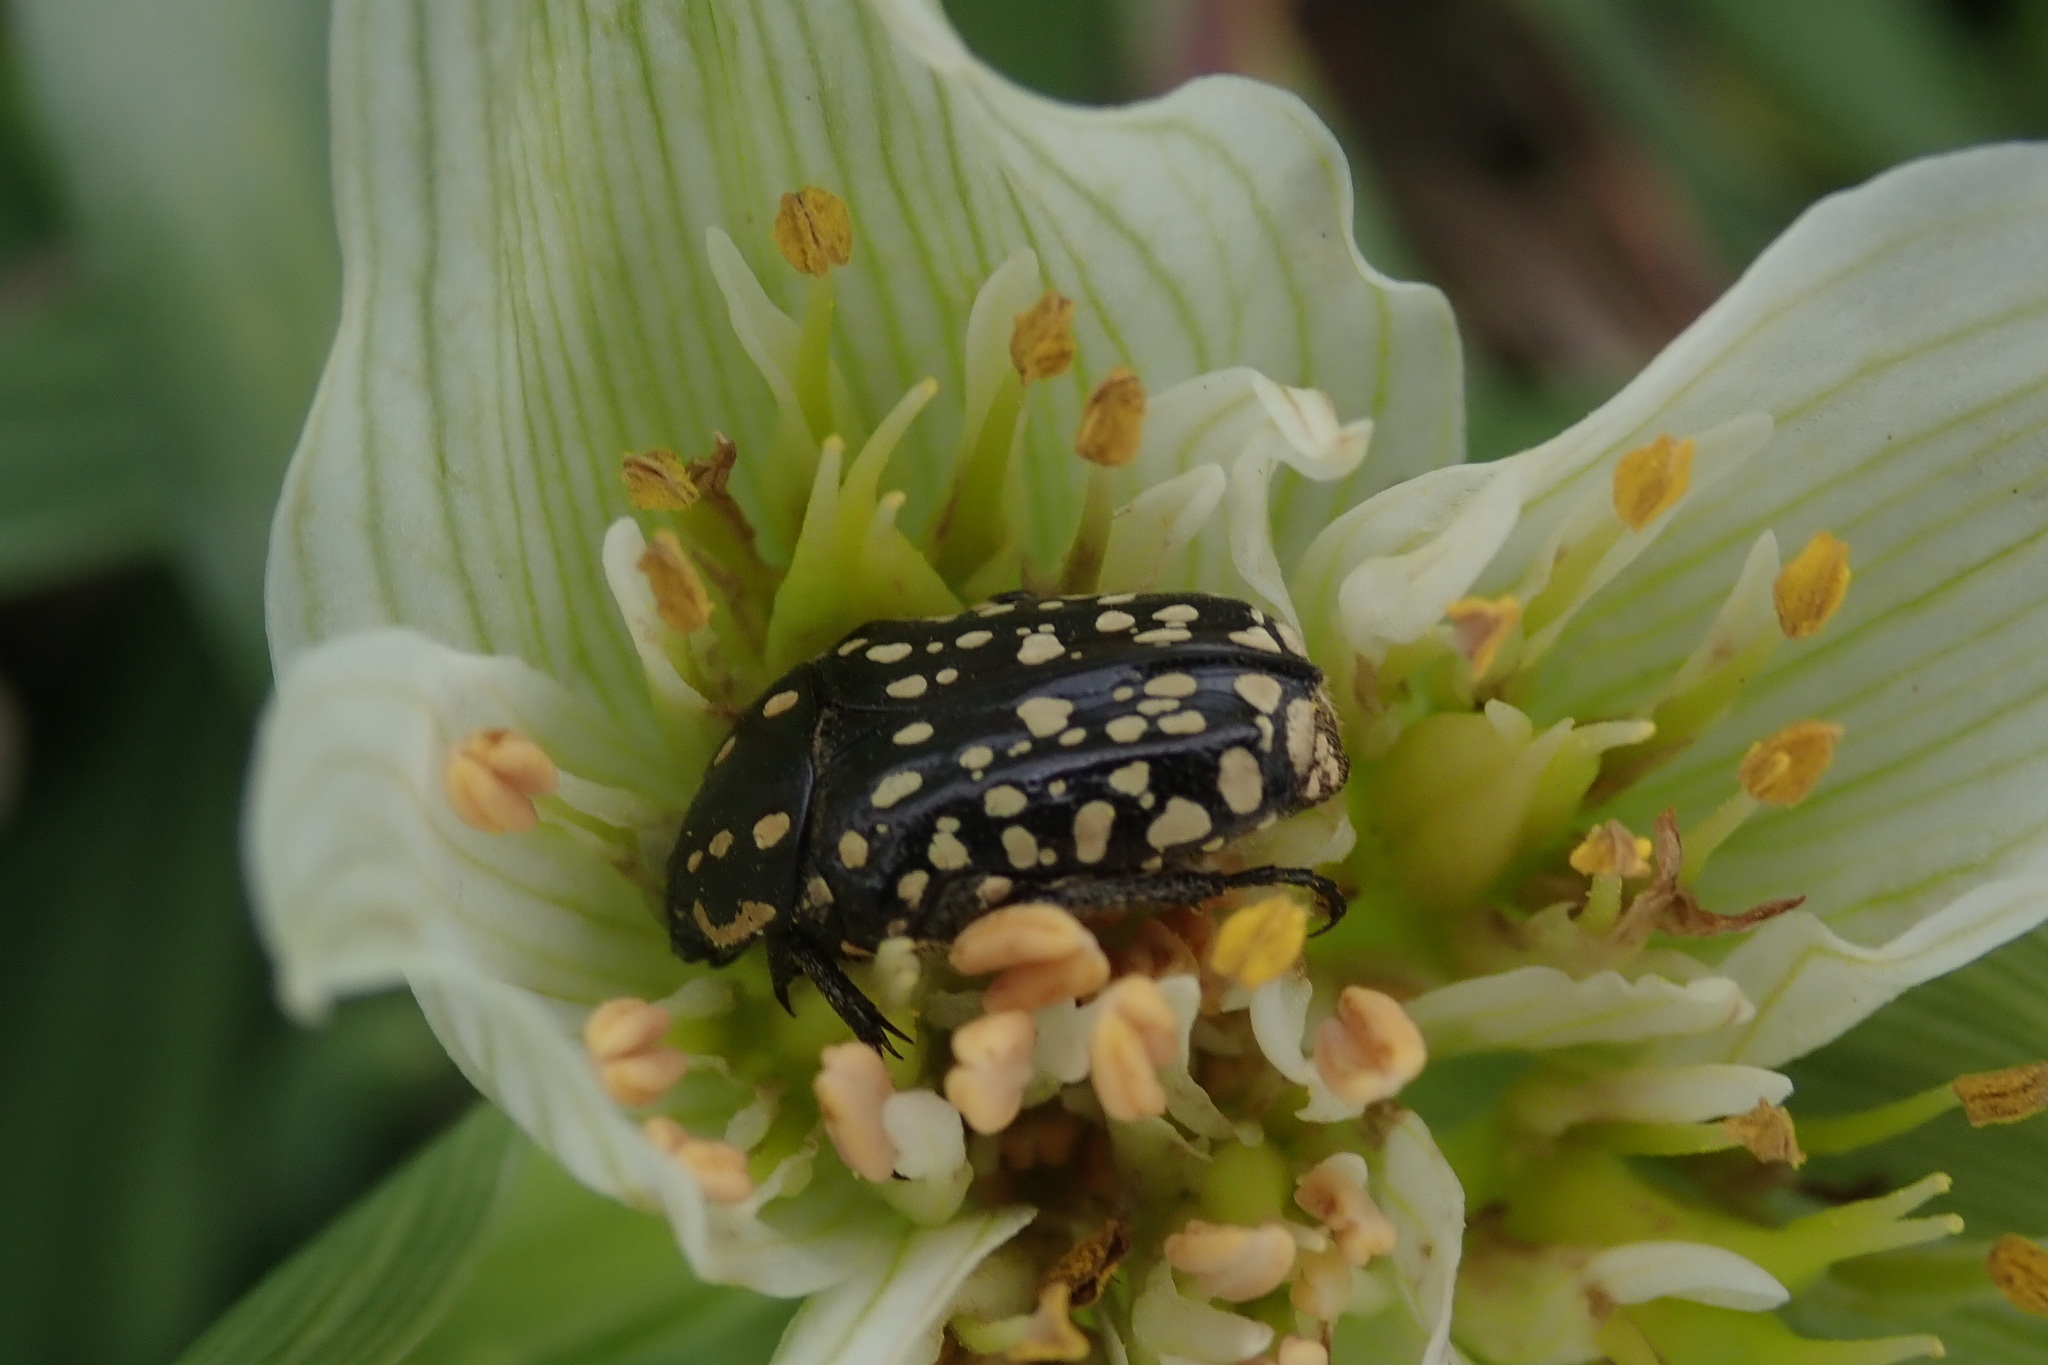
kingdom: Animalia
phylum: Arthropoda
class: Insecta
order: Coleoptera
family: Scarabaeidae
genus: Cyrtothyrea
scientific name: Cyrtothyrea testaceoguttata
